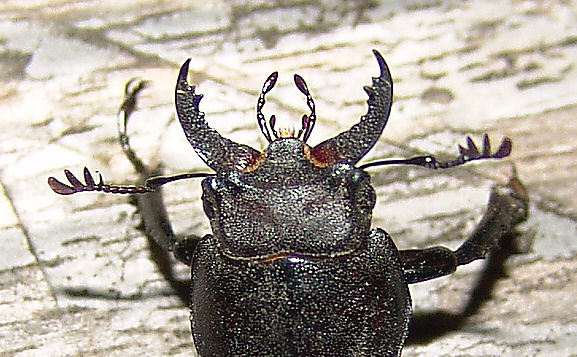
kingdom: Animalia
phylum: Arthropoda
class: Insecta
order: Coleoptera
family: Lucanidae
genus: Lucanus
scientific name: Lucanus placidus
